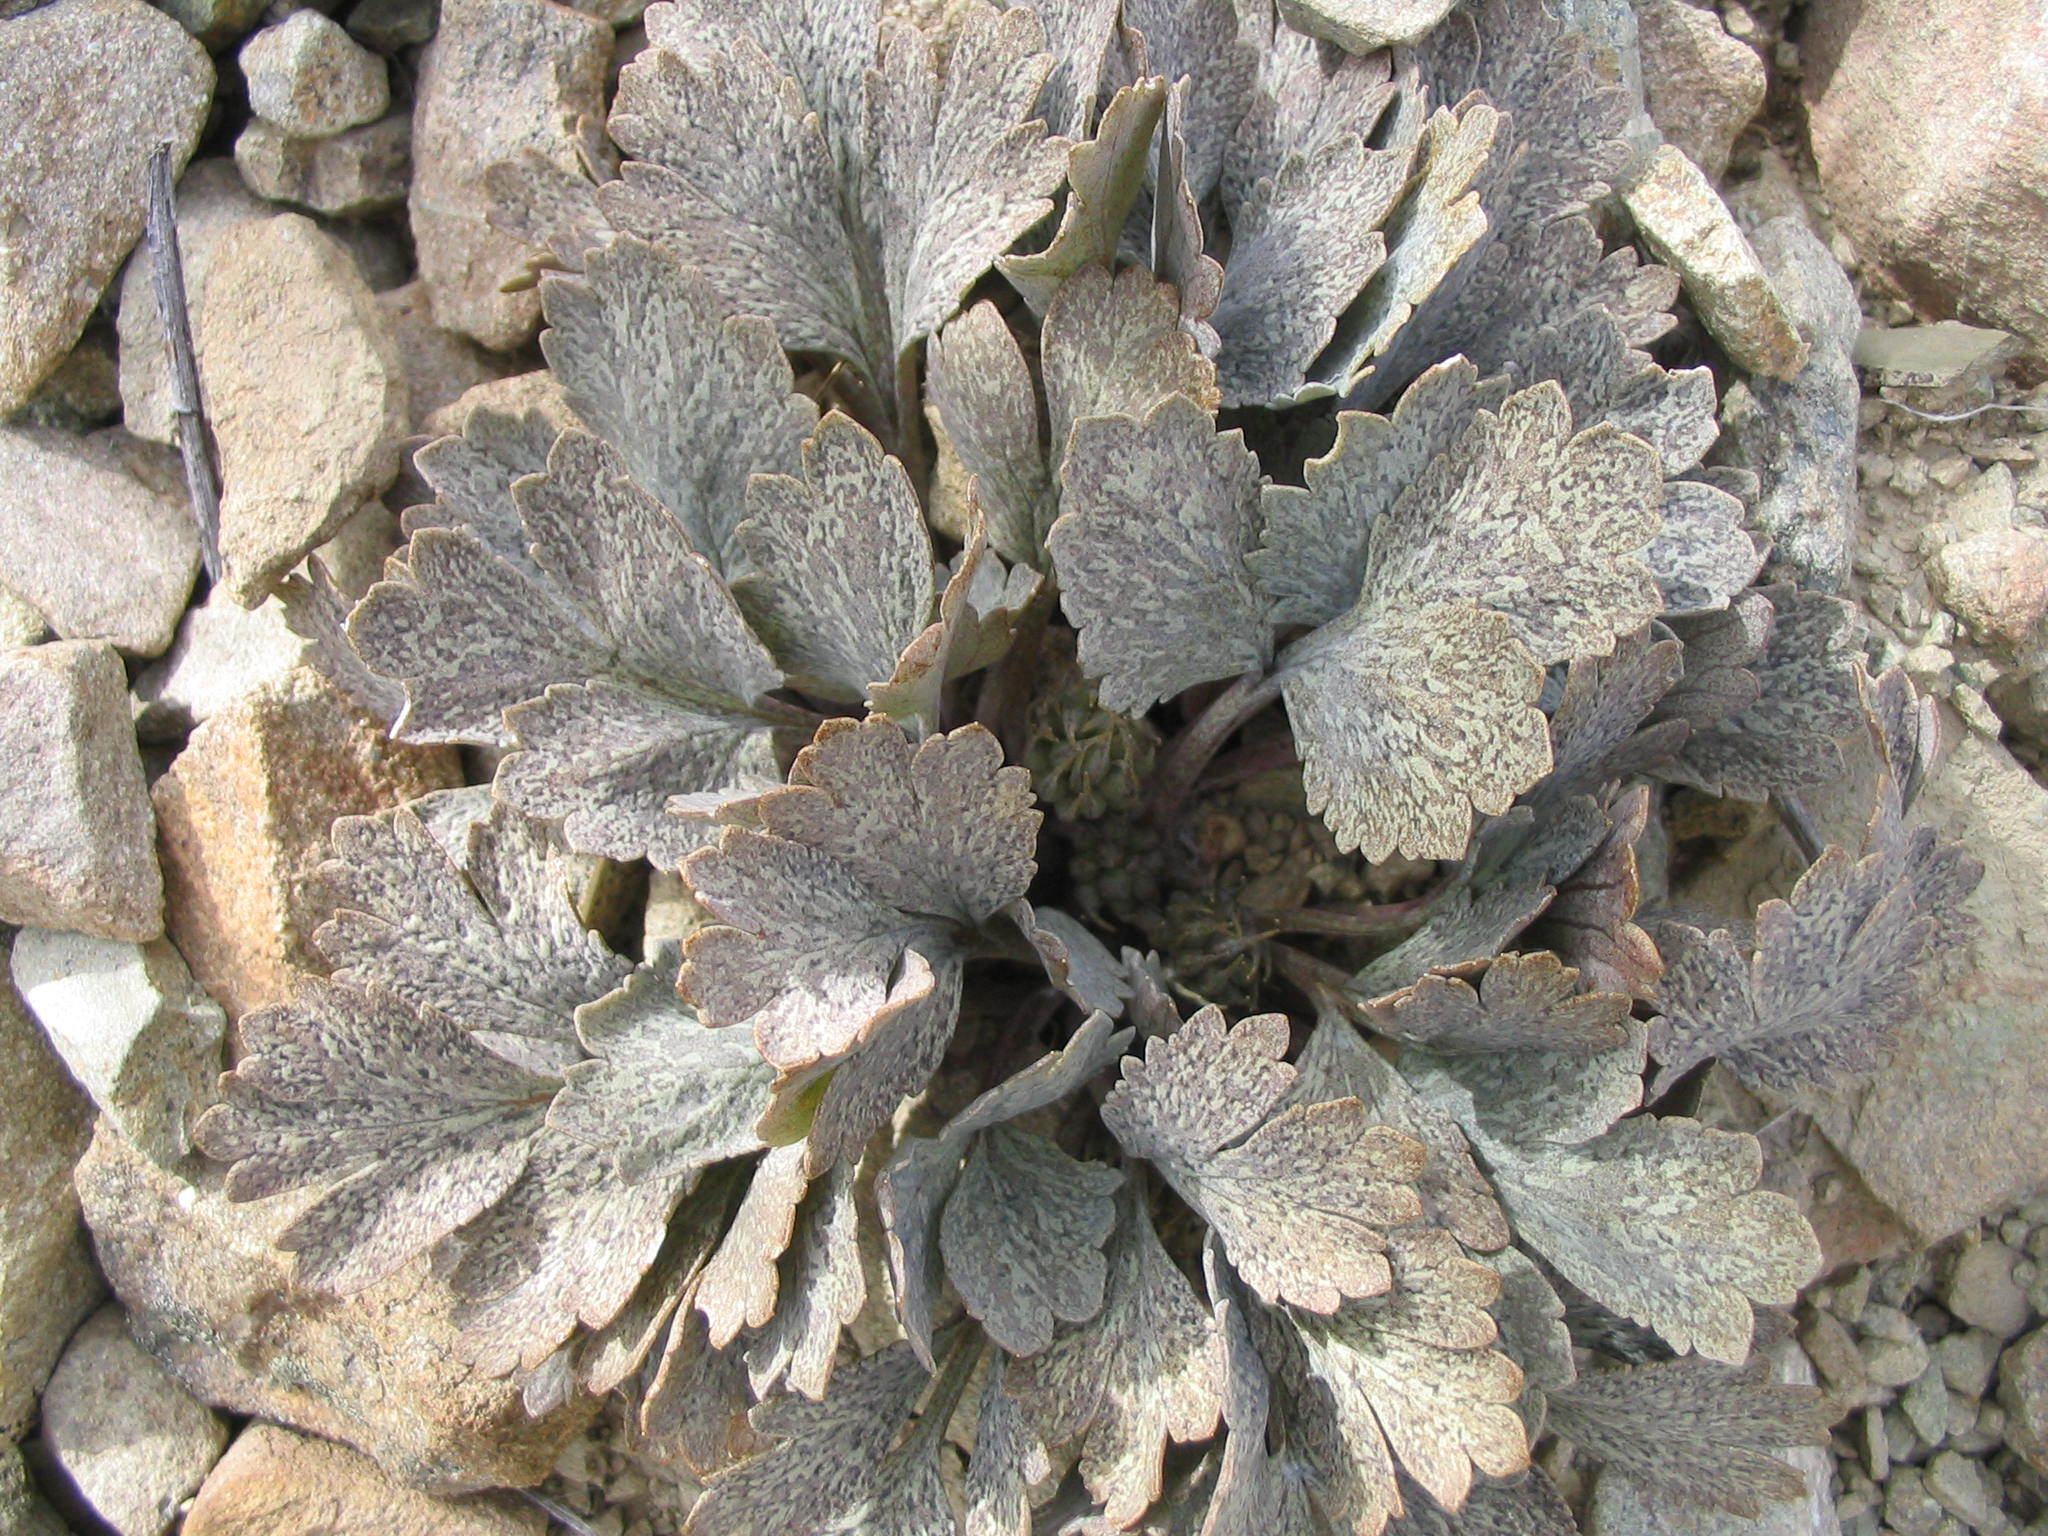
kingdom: Plantae
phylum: Tracheophyta
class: Magnoliopsida
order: Ranunculales
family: Ranunculaceae
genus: Ranunculus
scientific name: Ranunculus crithmifolius
